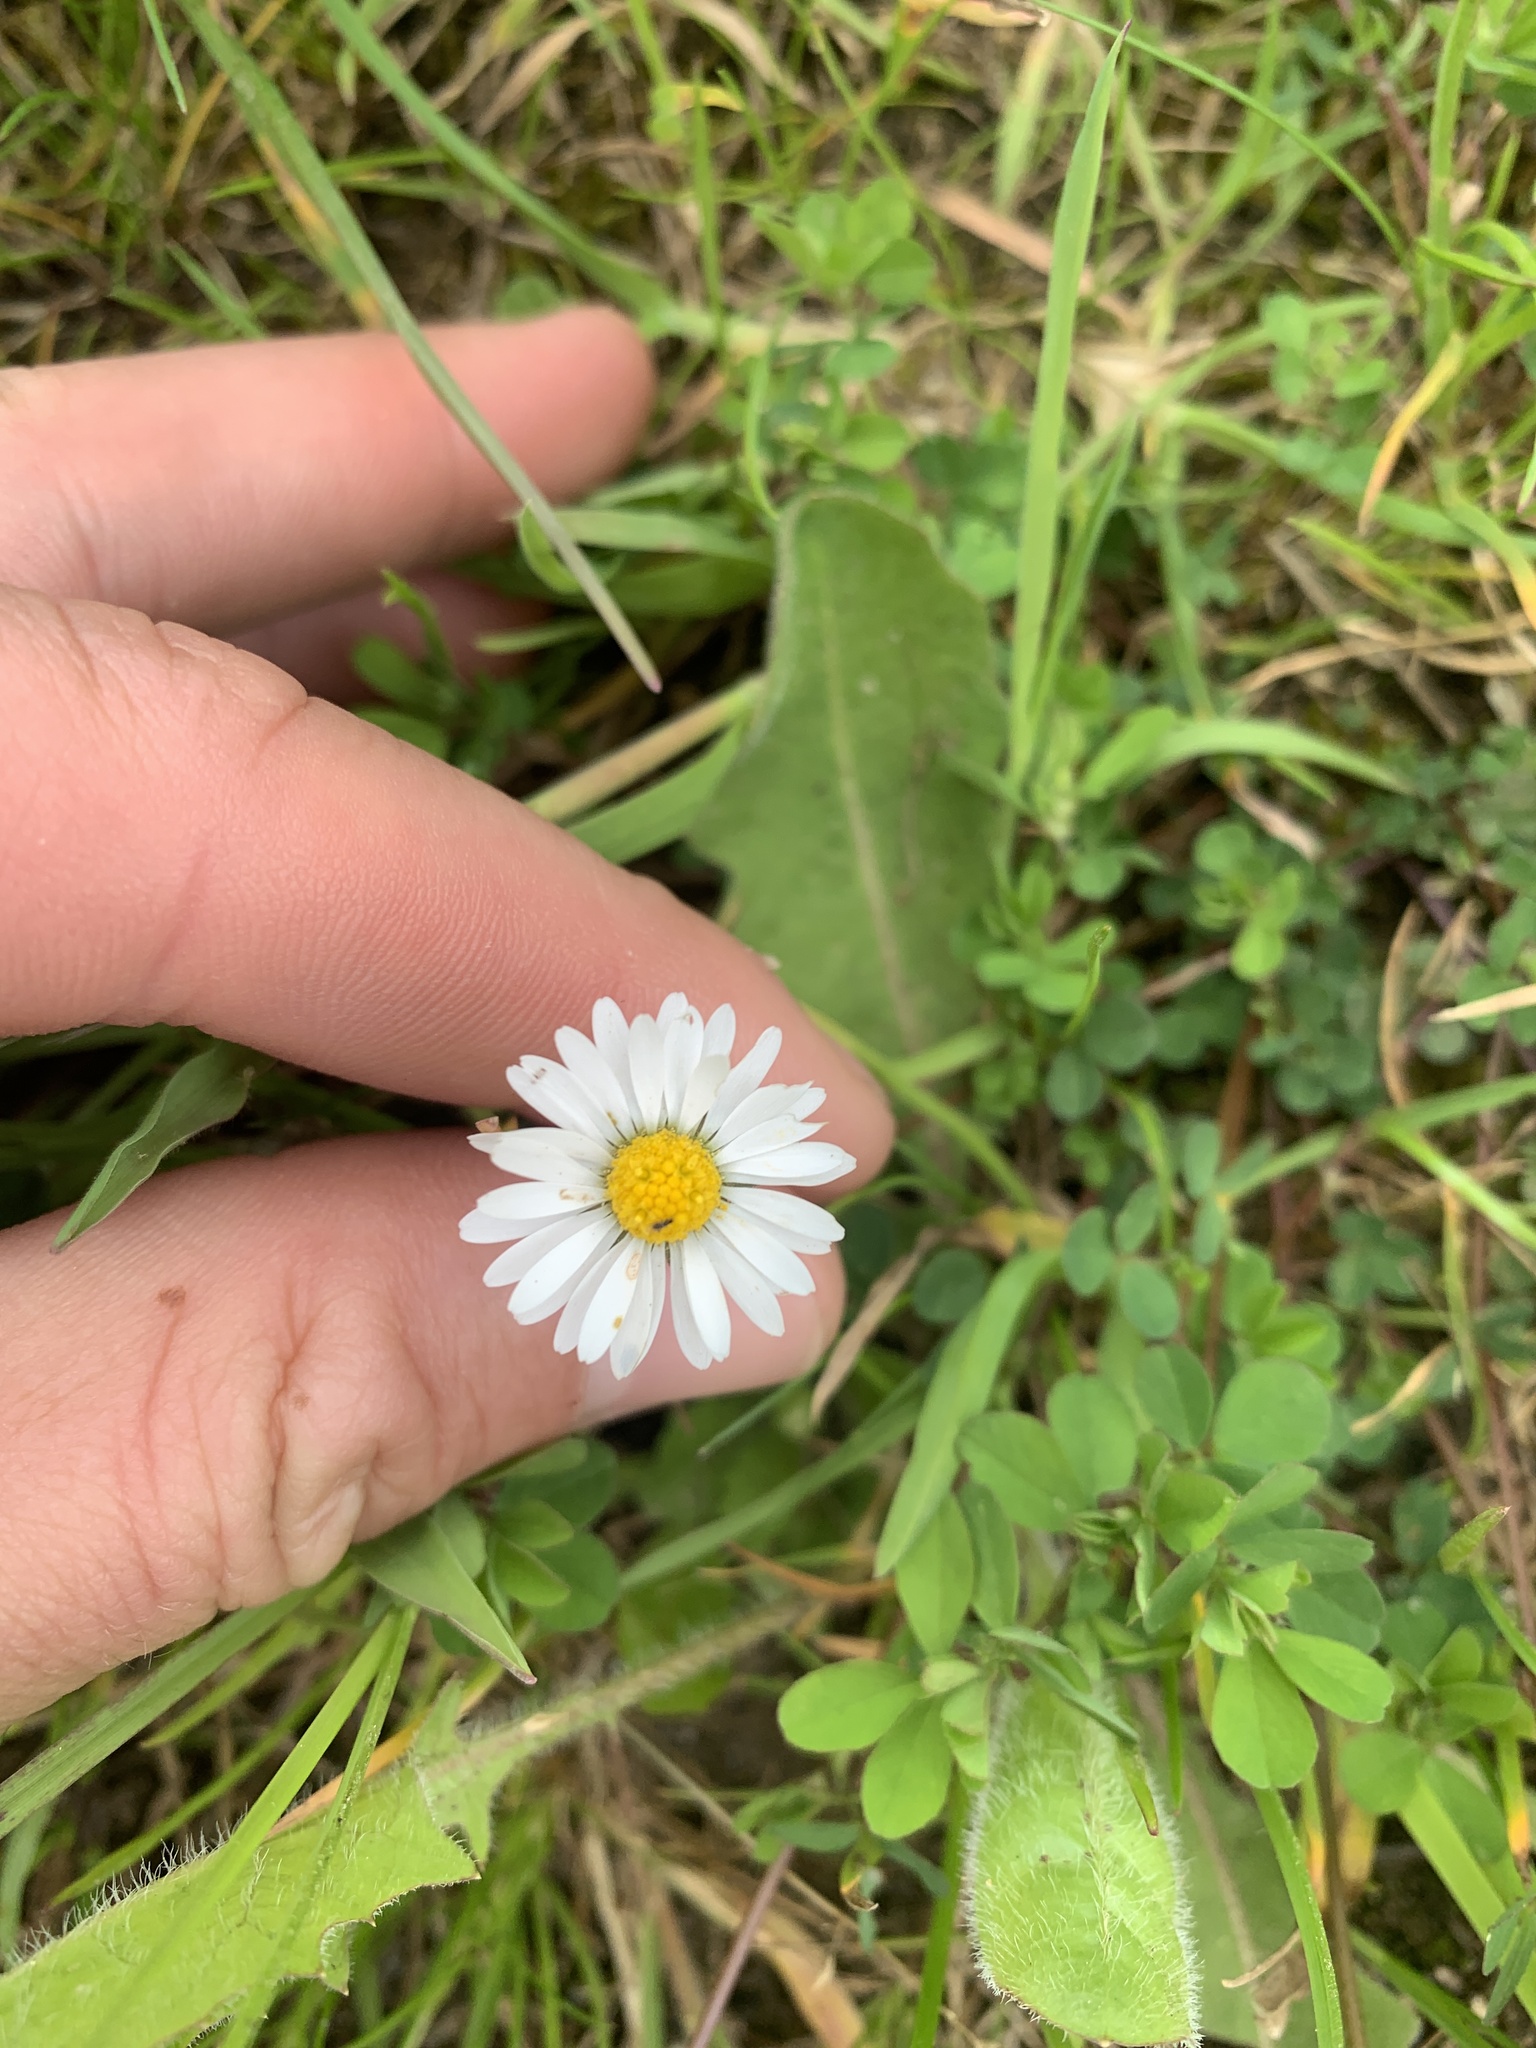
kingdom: Plantae
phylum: Tracheophyta
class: Magnoliopsida
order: Asterales
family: Asteraceae
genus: Bellis
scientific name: Bellis perennis
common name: Lawndaisy
